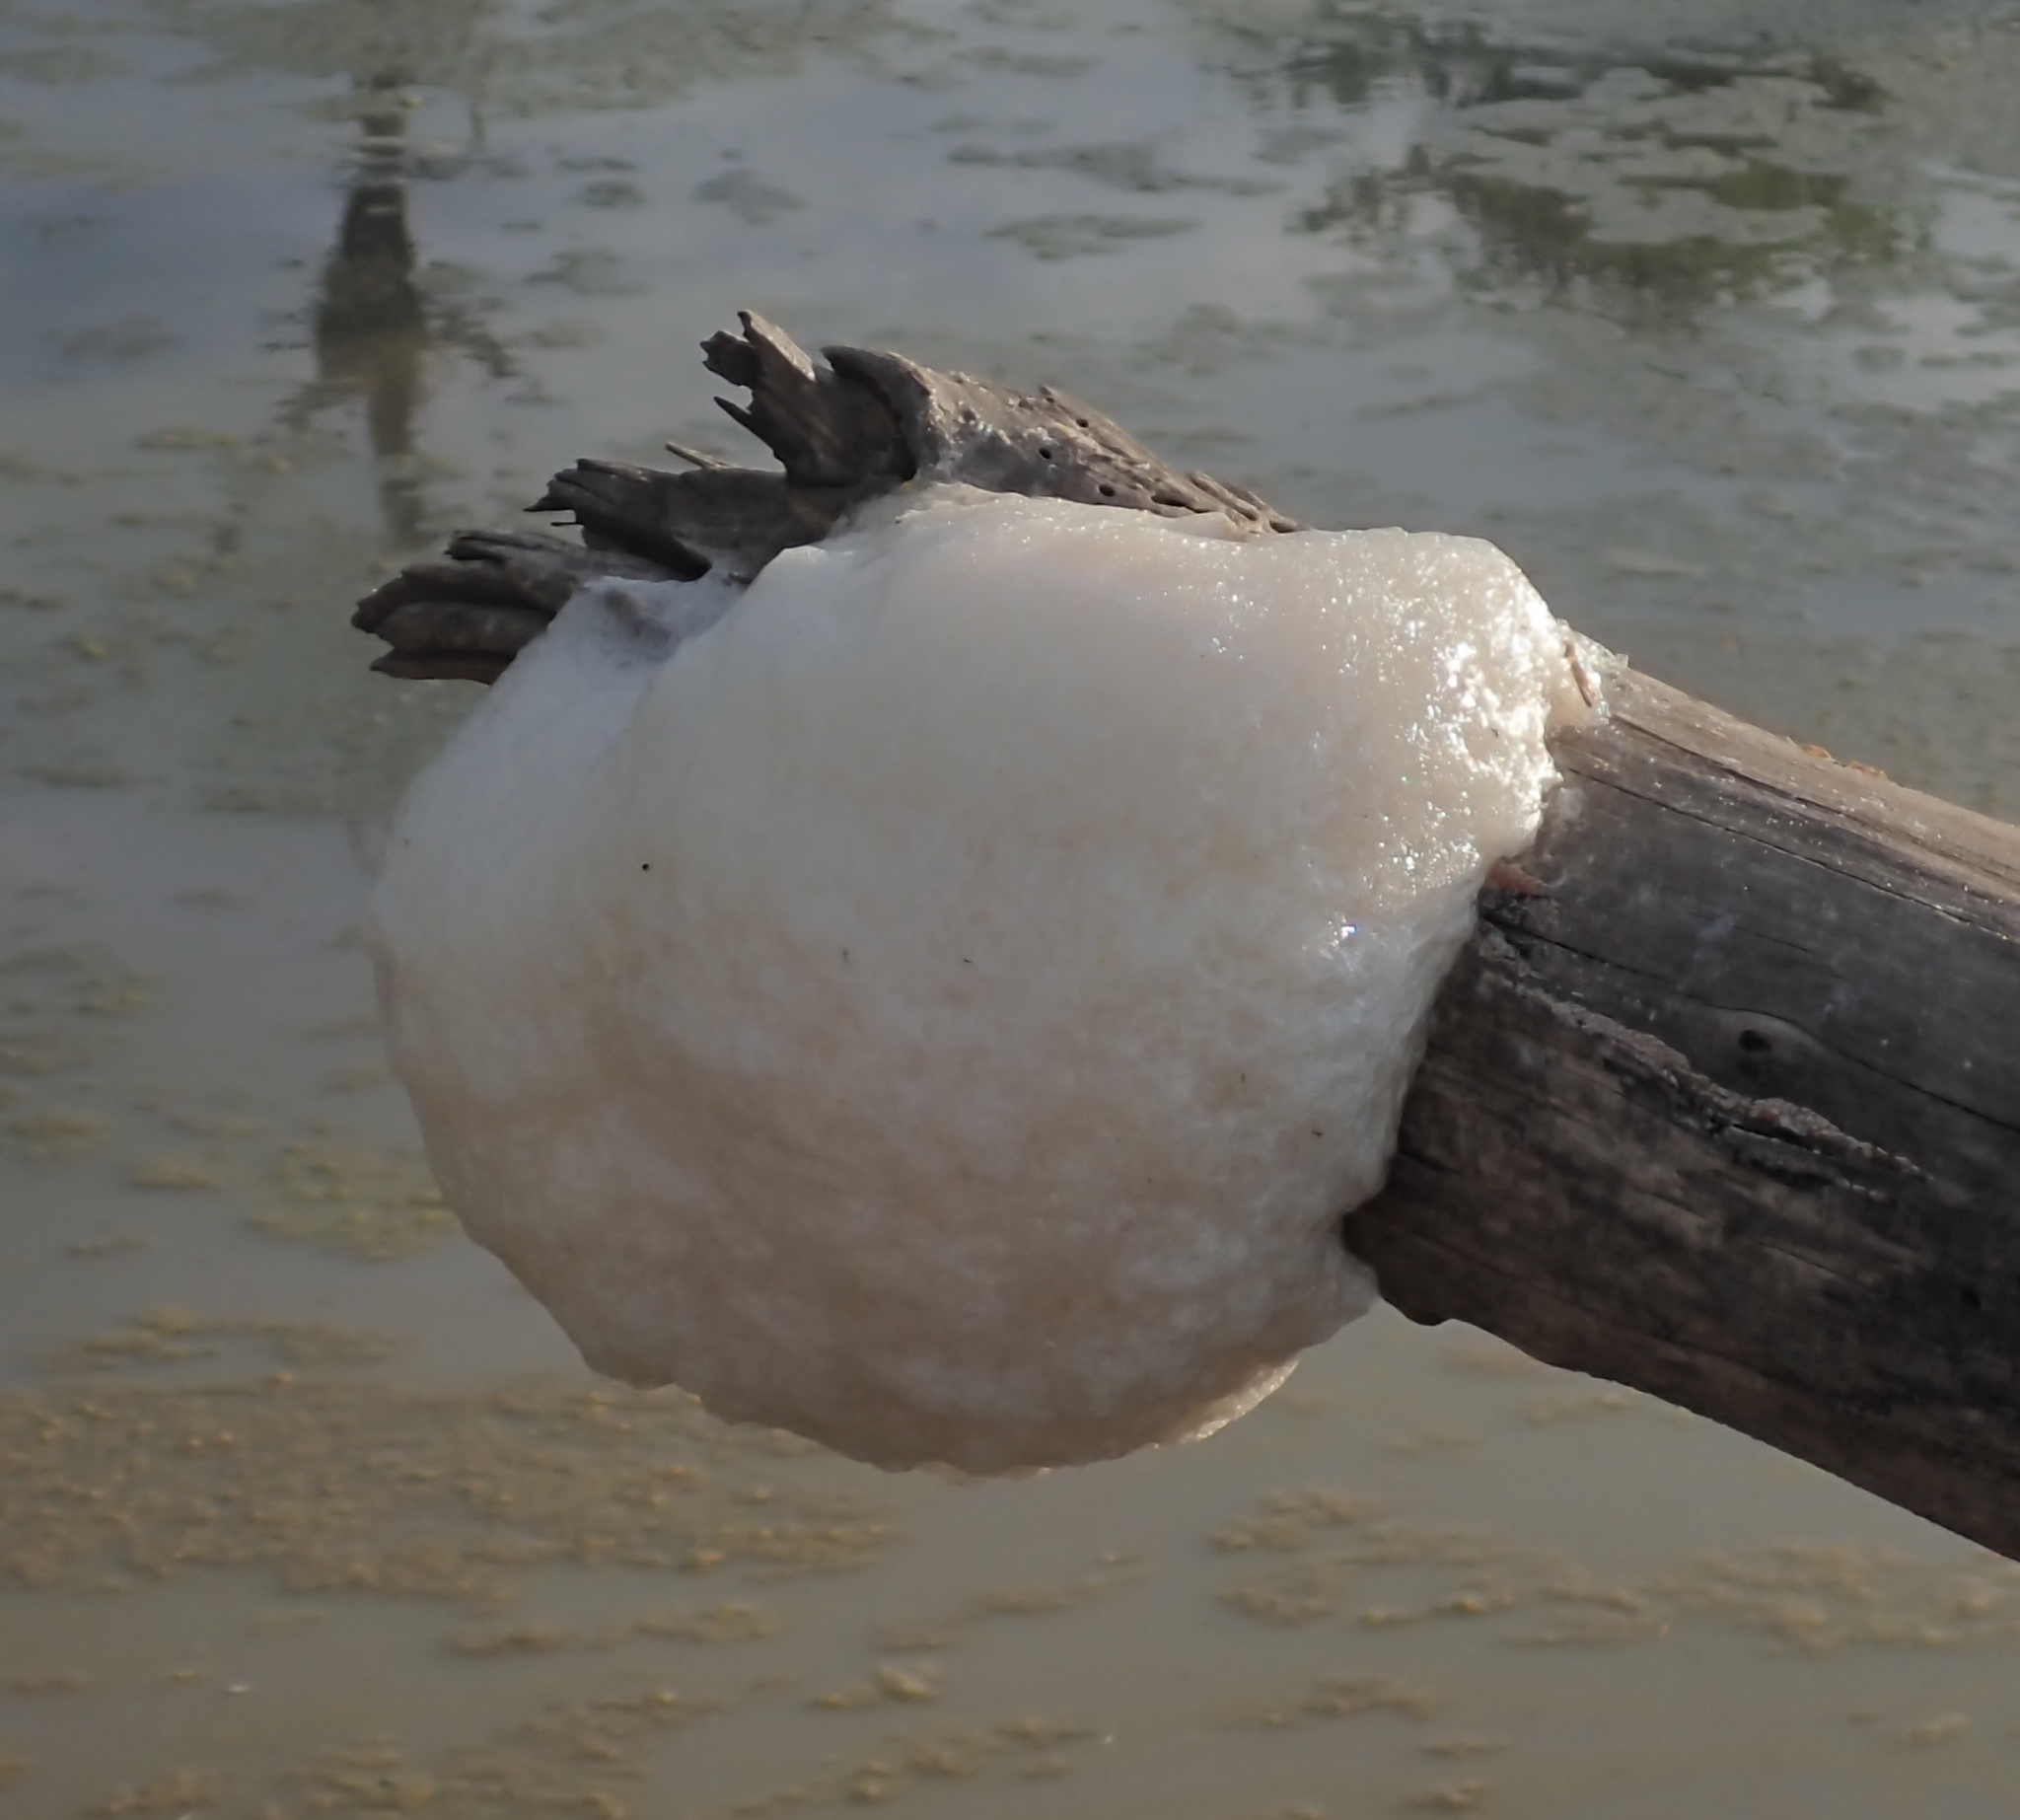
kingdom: Animalia
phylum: Chordata
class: Amphibia
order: Anura
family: Rhacophoridae
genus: Chiromantis
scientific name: Chiromantis xerampelina
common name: African gray treefrog
